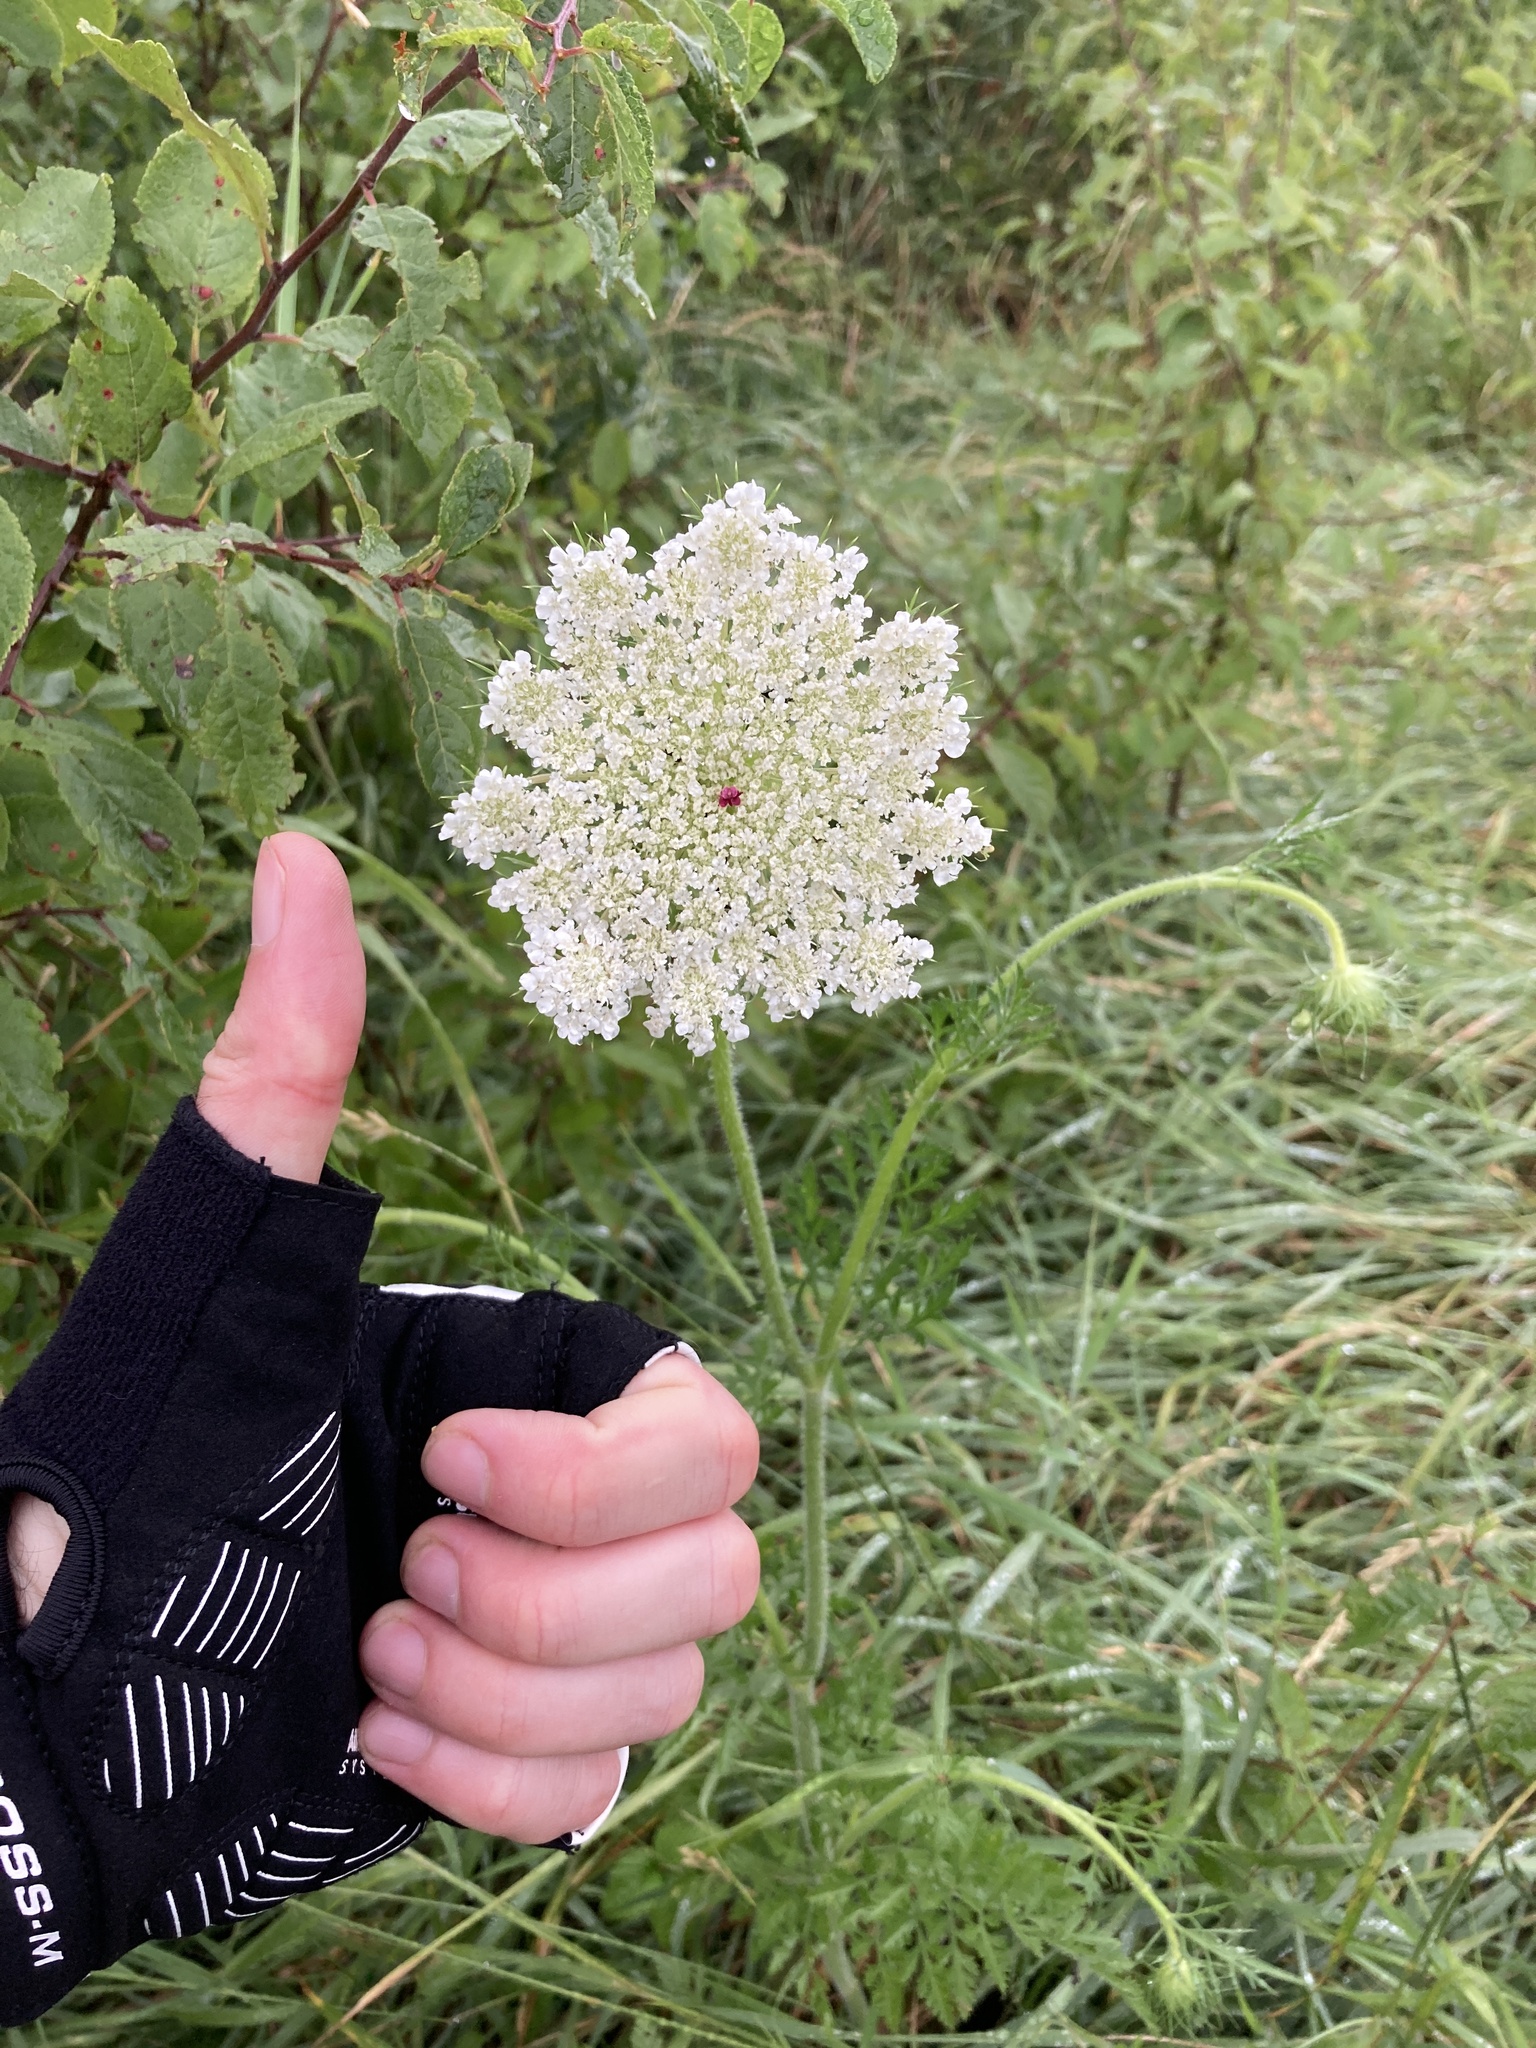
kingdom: Plantae
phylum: Tracheophyta
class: Magnoliopsida
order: Apiales
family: Apiaceae
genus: Daucus
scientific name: Daucus carota
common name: Wild carrot
